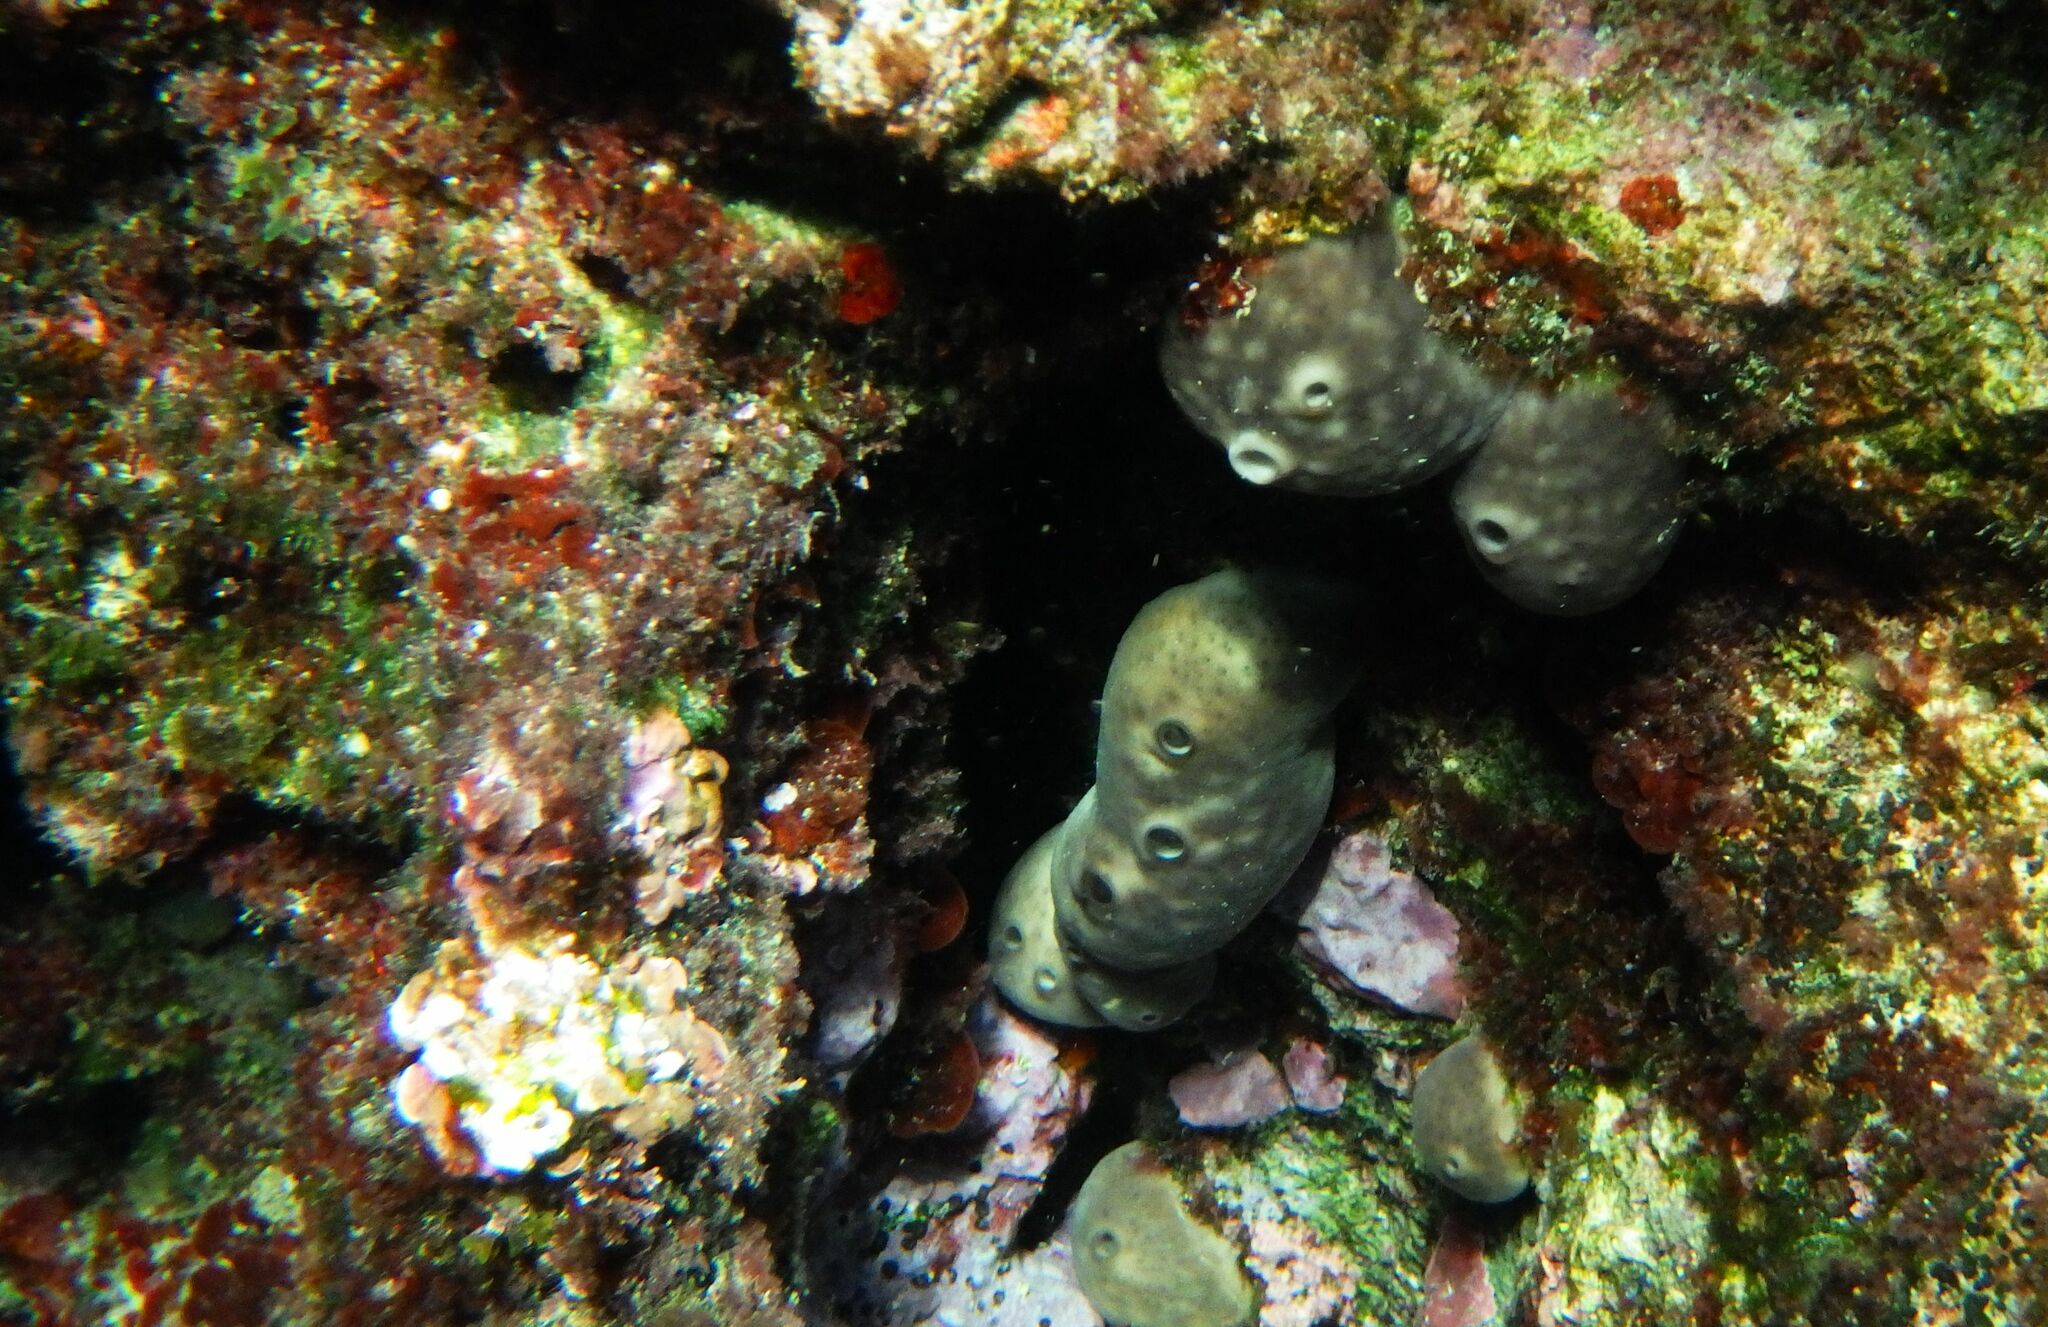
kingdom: Animalia
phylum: Porifera
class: Demospongiae
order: Chondrosiida
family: Chondrosiidae
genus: Chondrosia
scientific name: Chondrosia reniformis
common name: Chicken liver sponge
